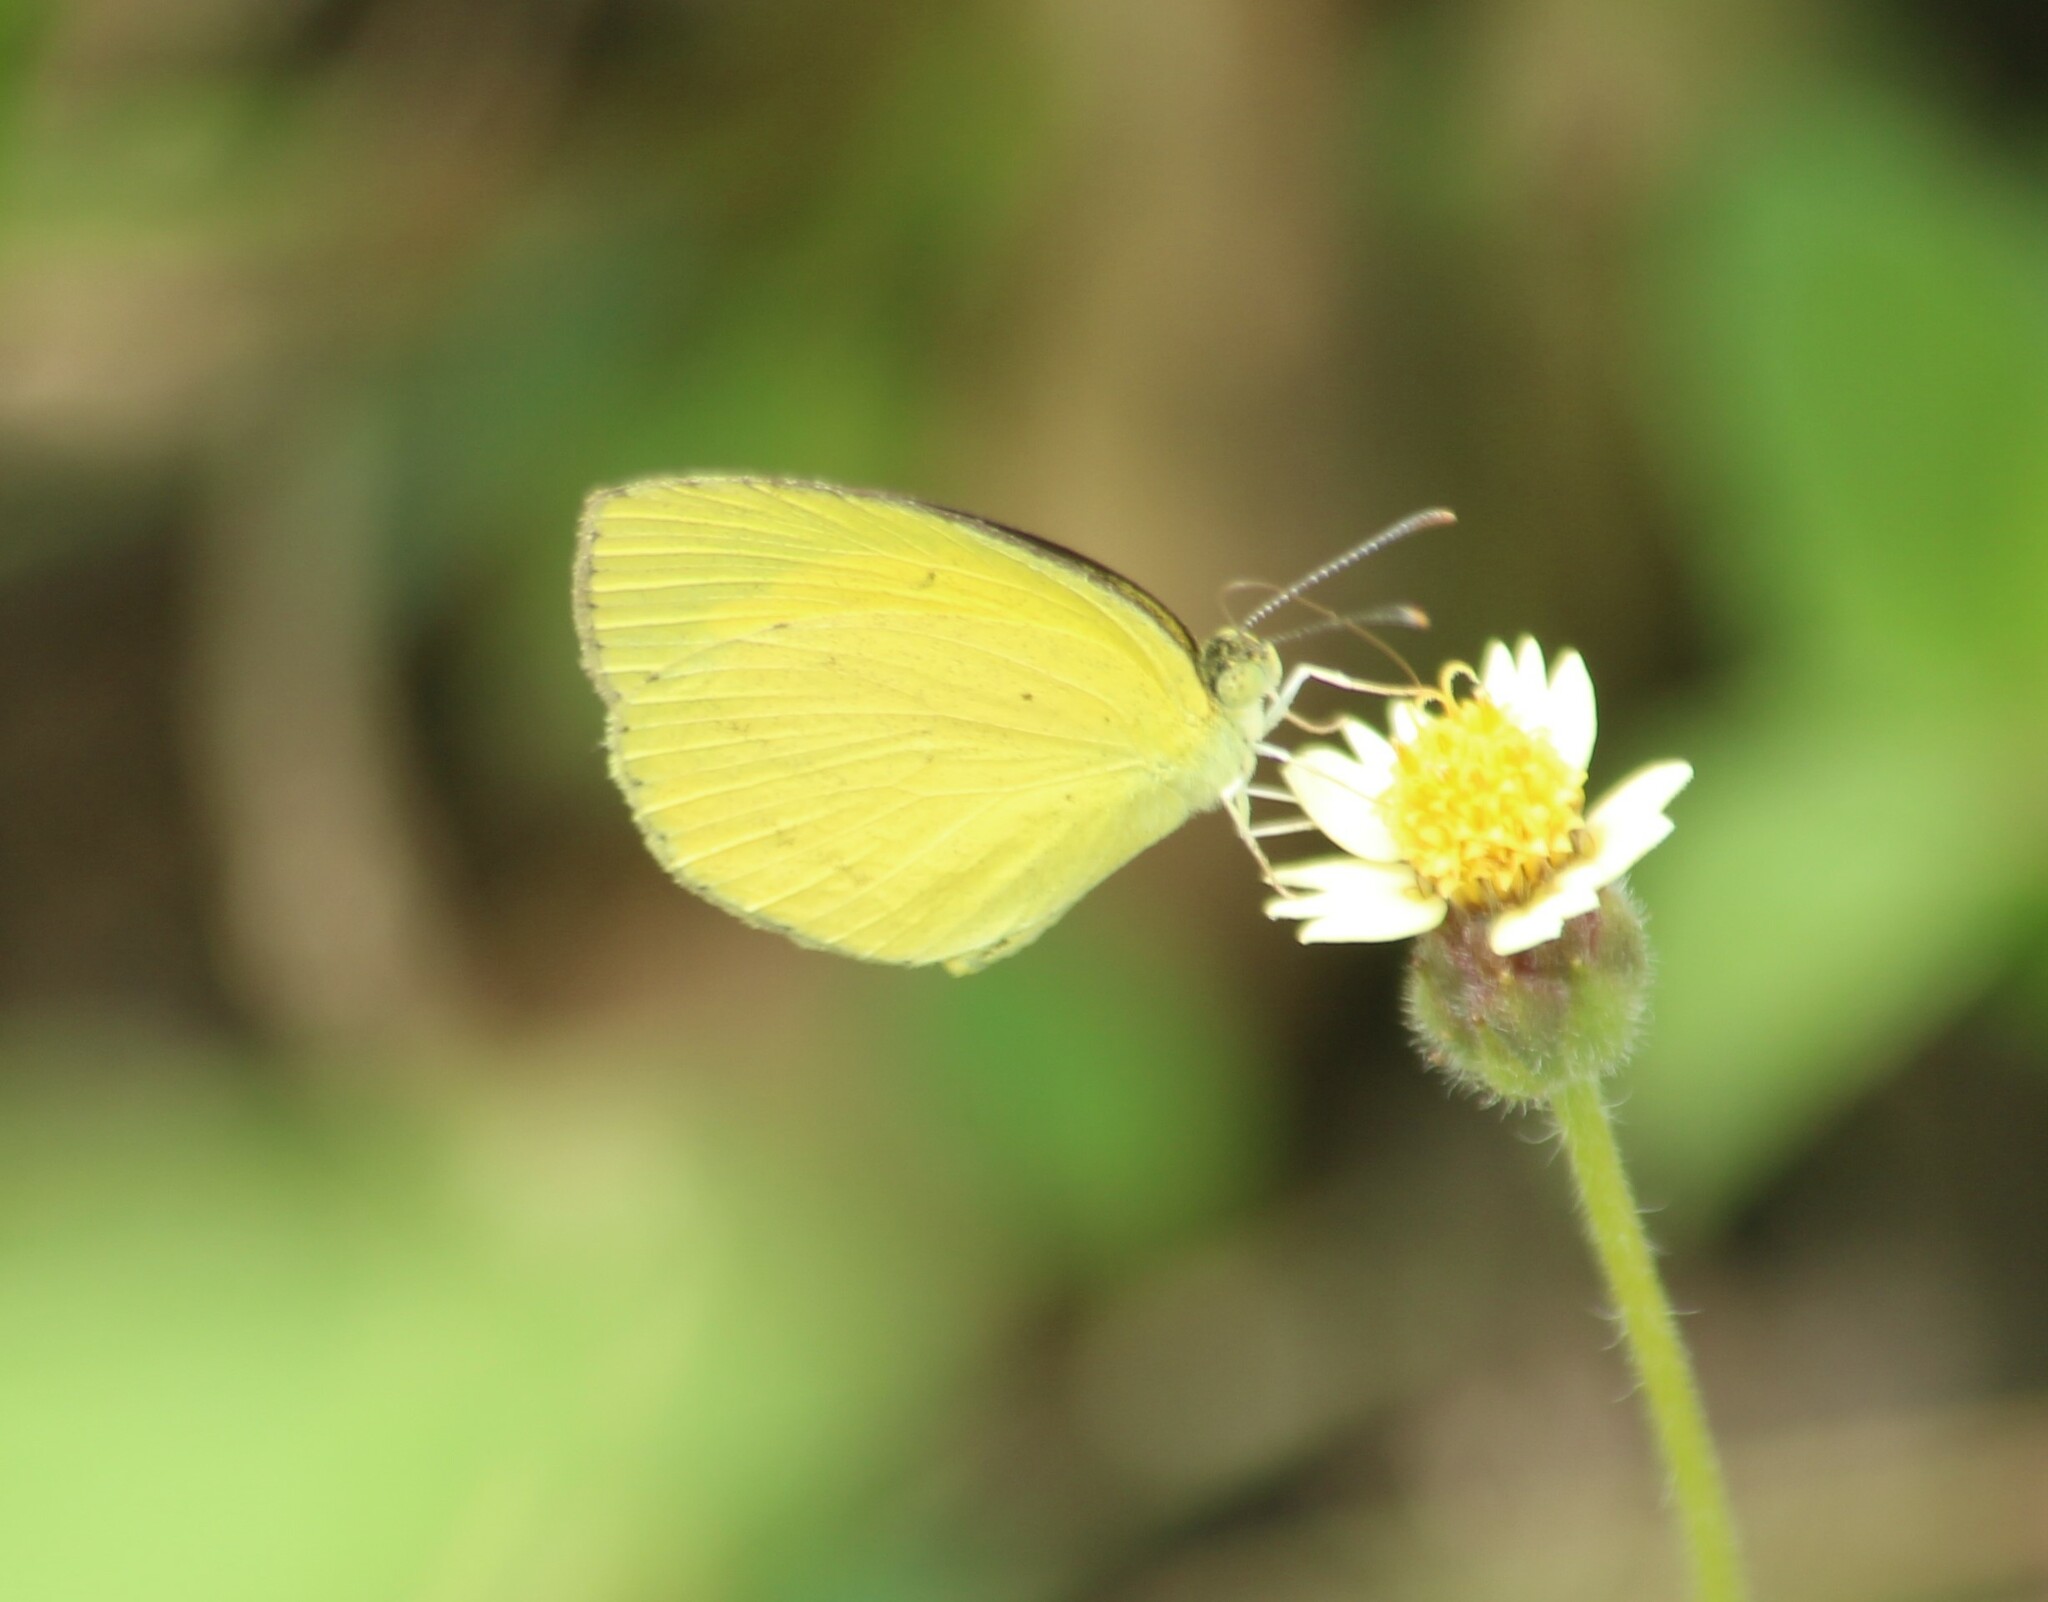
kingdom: Animalia
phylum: Arthropoda
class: Insecta
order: Lepidoptera
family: Pieridae
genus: Eurema
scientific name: Eurema brigitta
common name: Small grass yellow
